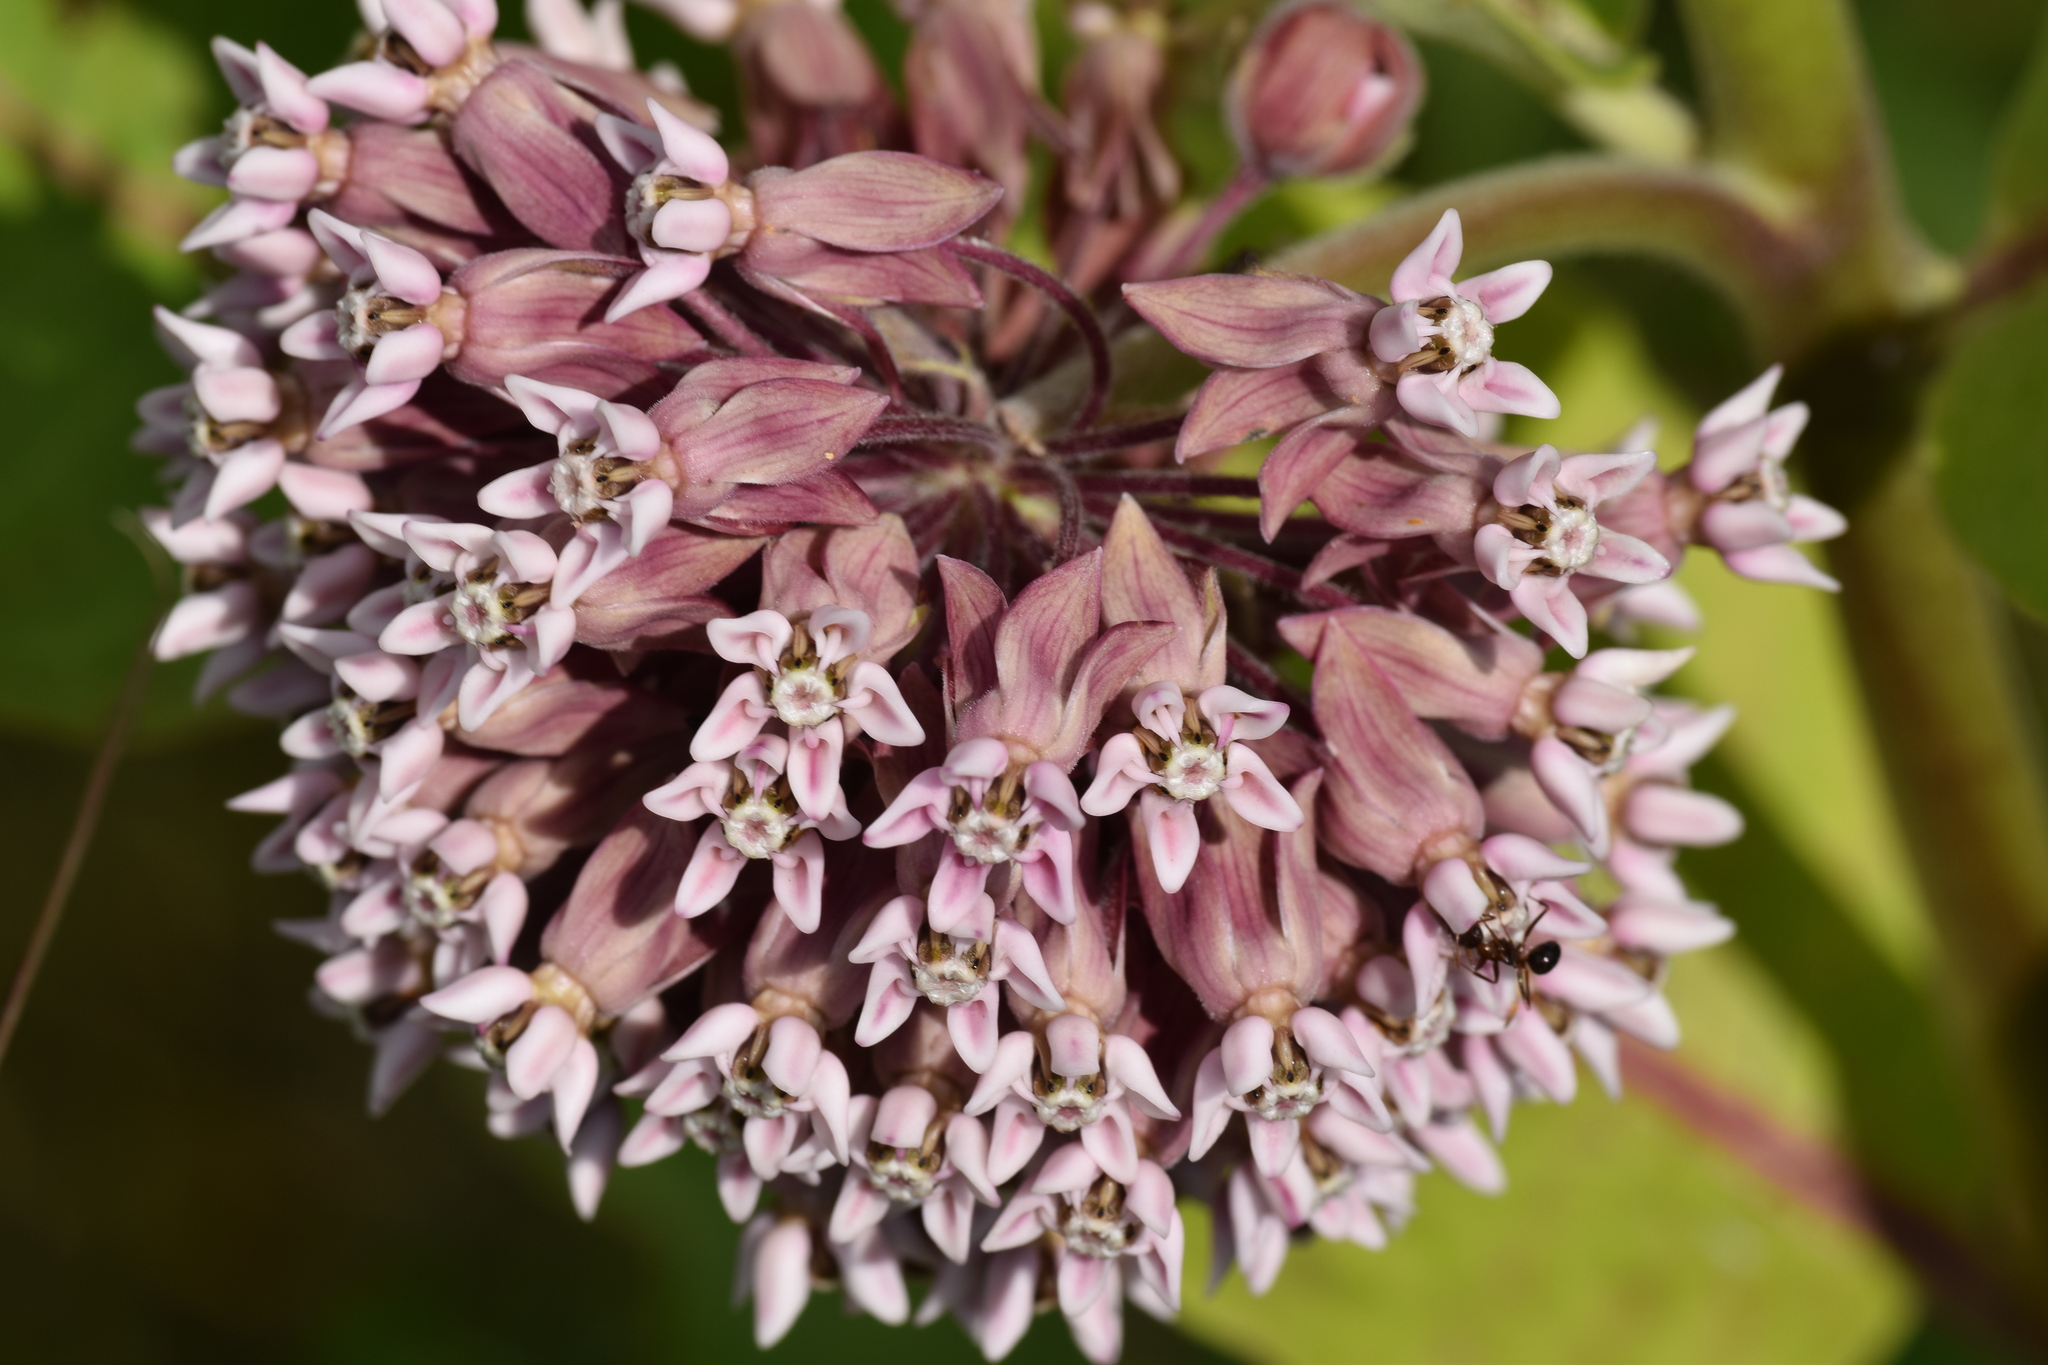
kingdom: Plantae
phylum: Tracheophyta
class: Magnoliopsida
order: Gentianales
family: Apocynaceae
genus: Asclepias
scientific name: Asclepias syriaca
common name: Common milkweed
